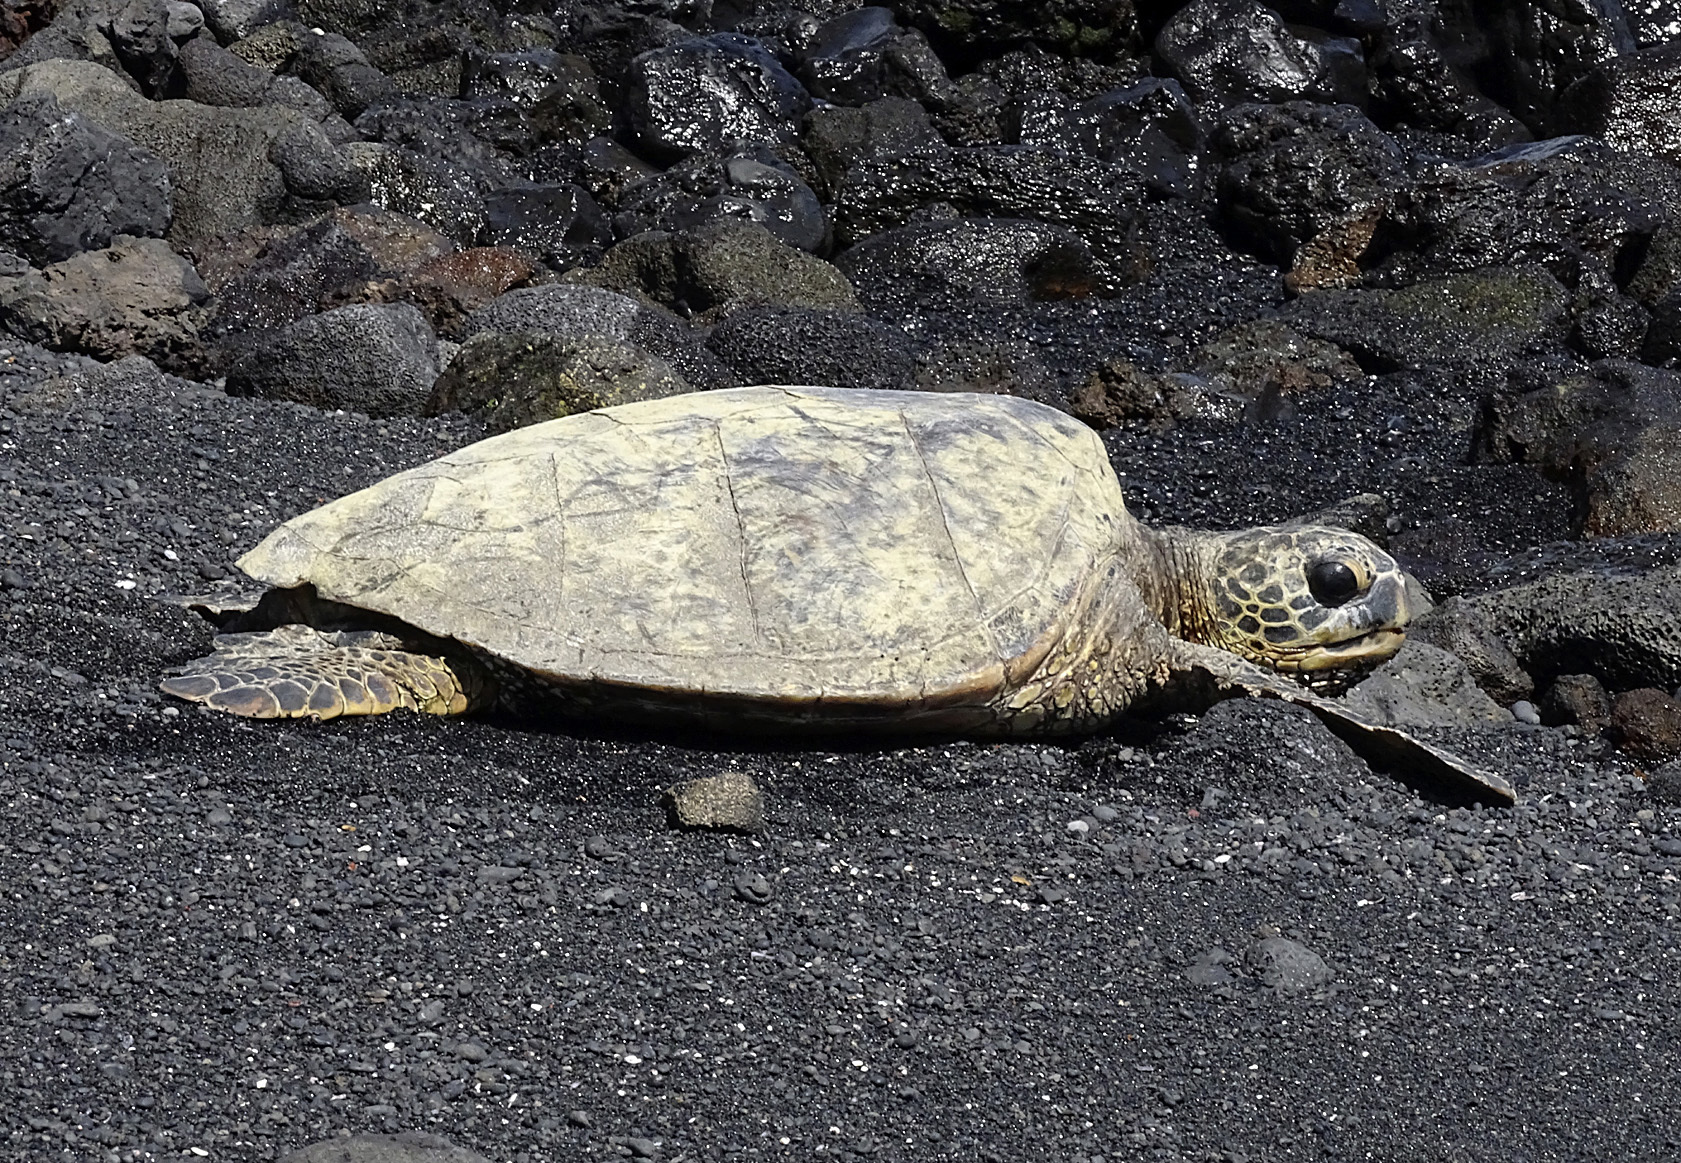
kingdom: Animalia
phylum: Chordata
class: Testudines
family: Cheloniidae
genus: Chelonia
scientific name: Chelonia mydas
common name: Green turtle
